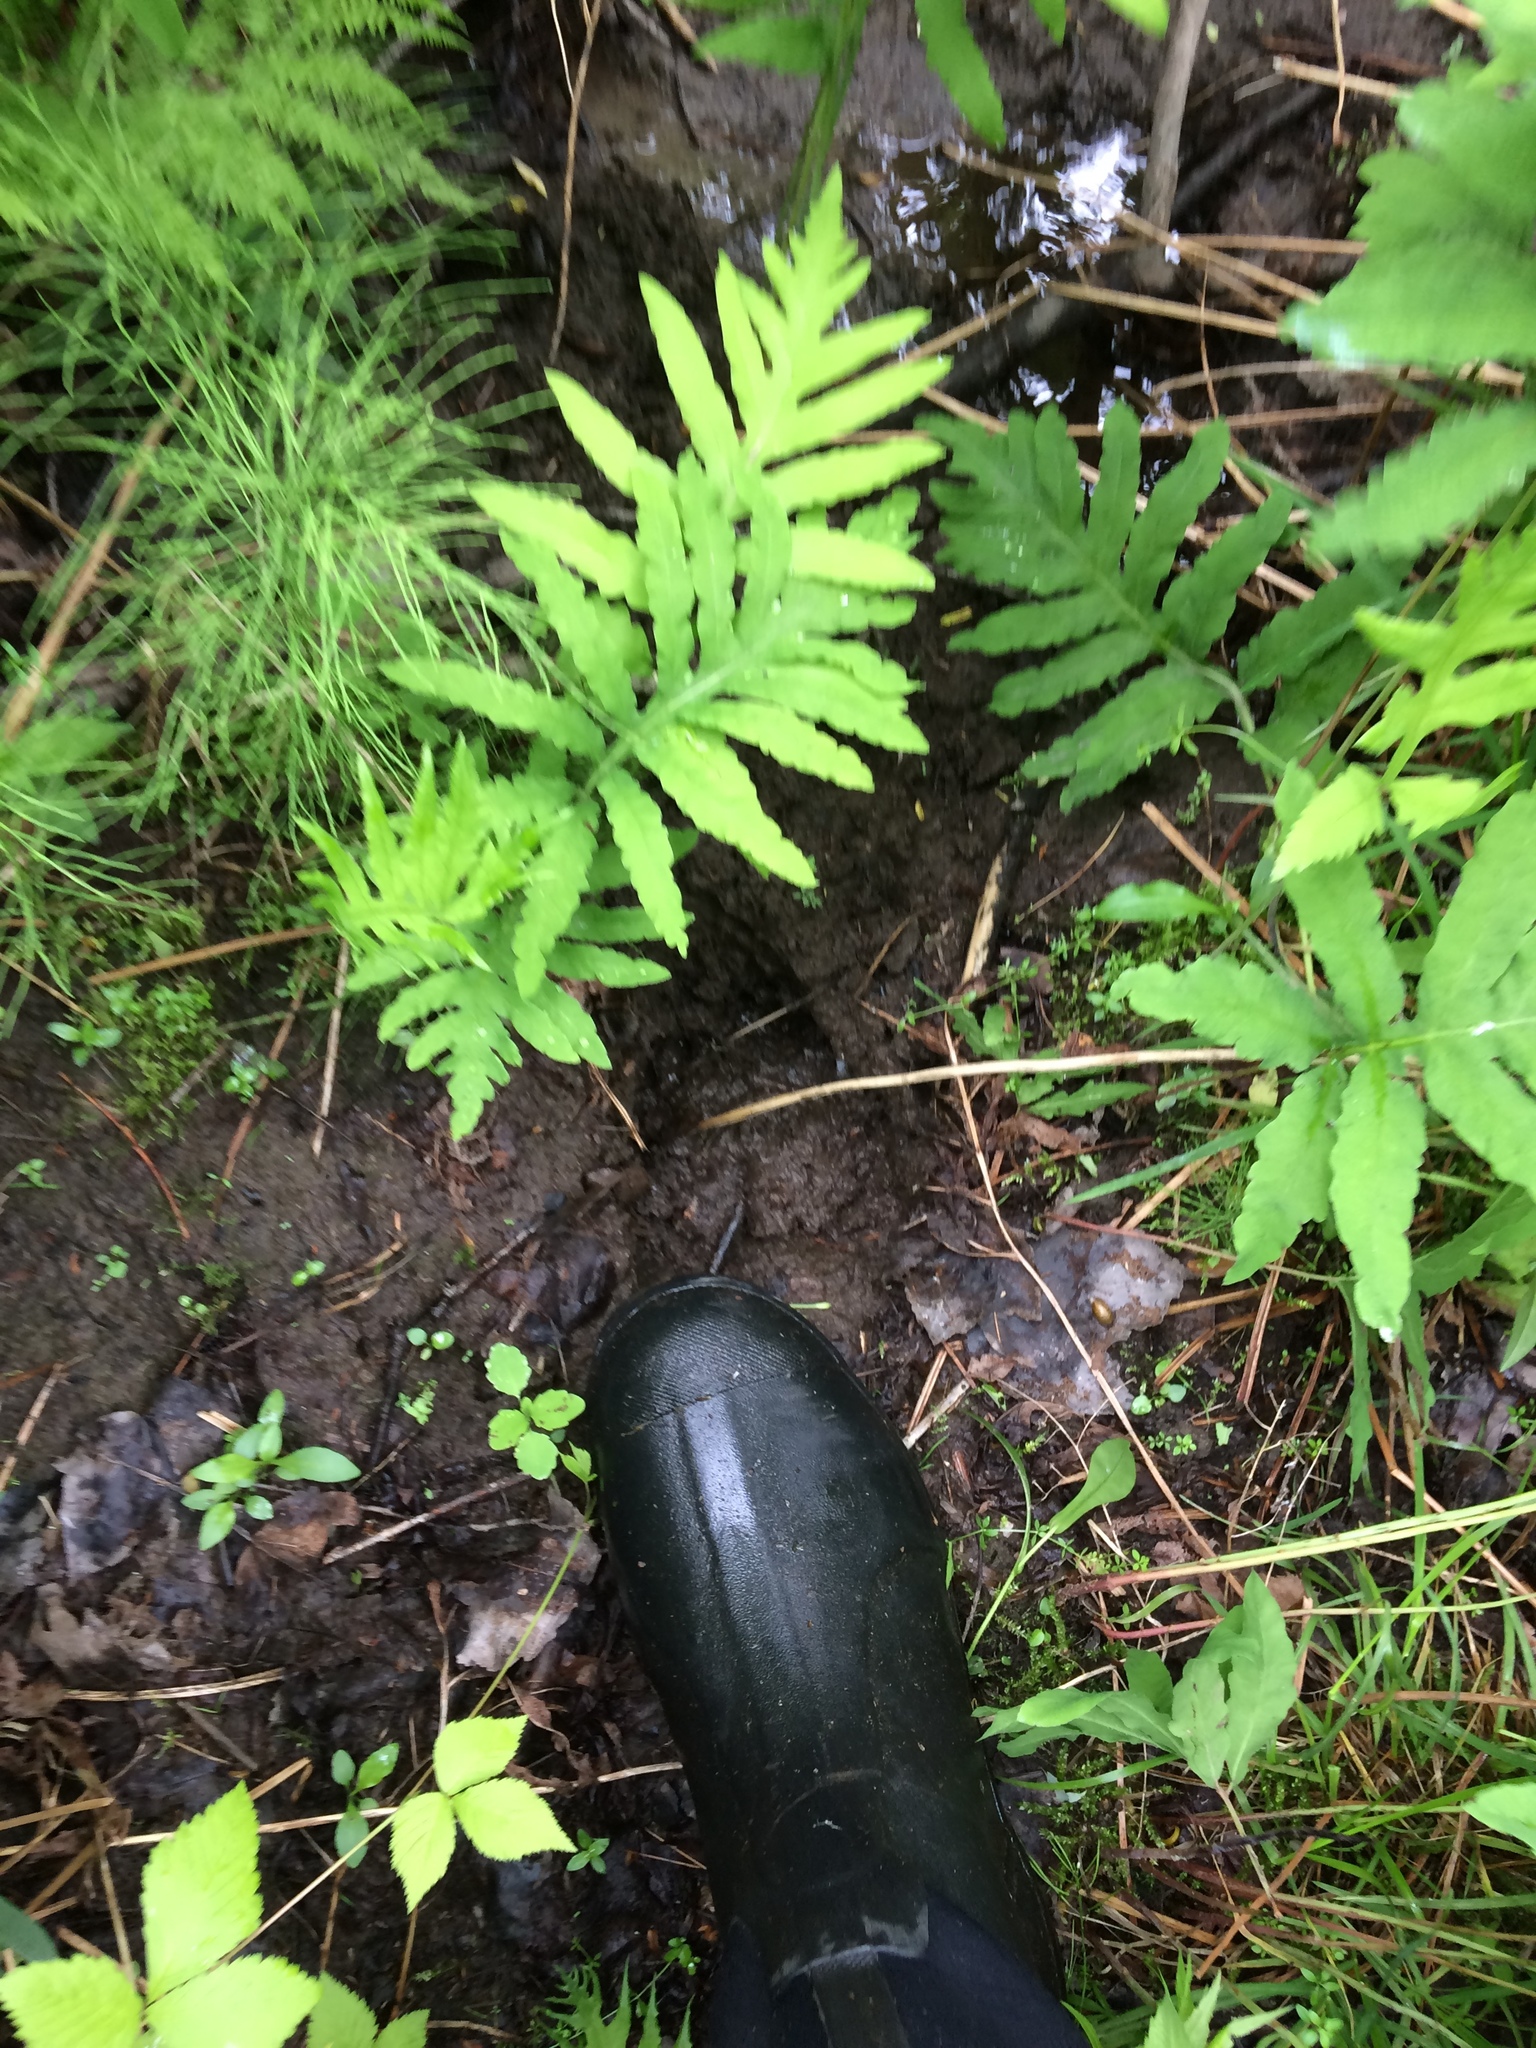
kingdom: Animalia
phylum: Chordata
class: Mammalia
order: Artiodactyla
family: Cervidae
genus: Alces
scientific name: Alces alces
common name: Moose
